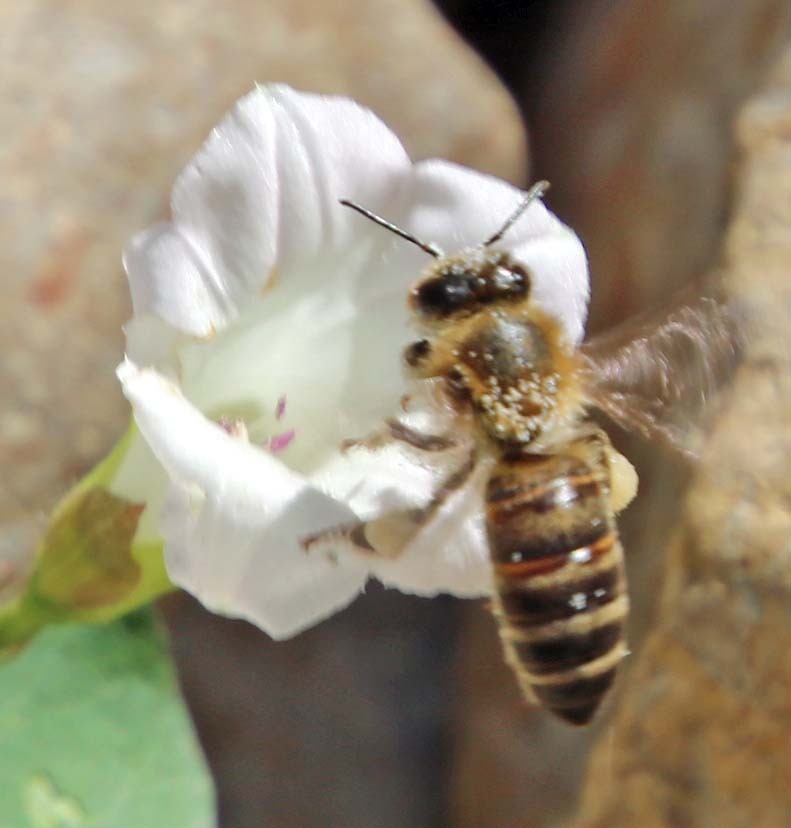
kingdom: Animalia
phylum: Arthropoda
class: Insecta
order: Hymenoptera
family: Apidae
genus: Apis
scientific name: Apis mellifera
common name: Honey bee
